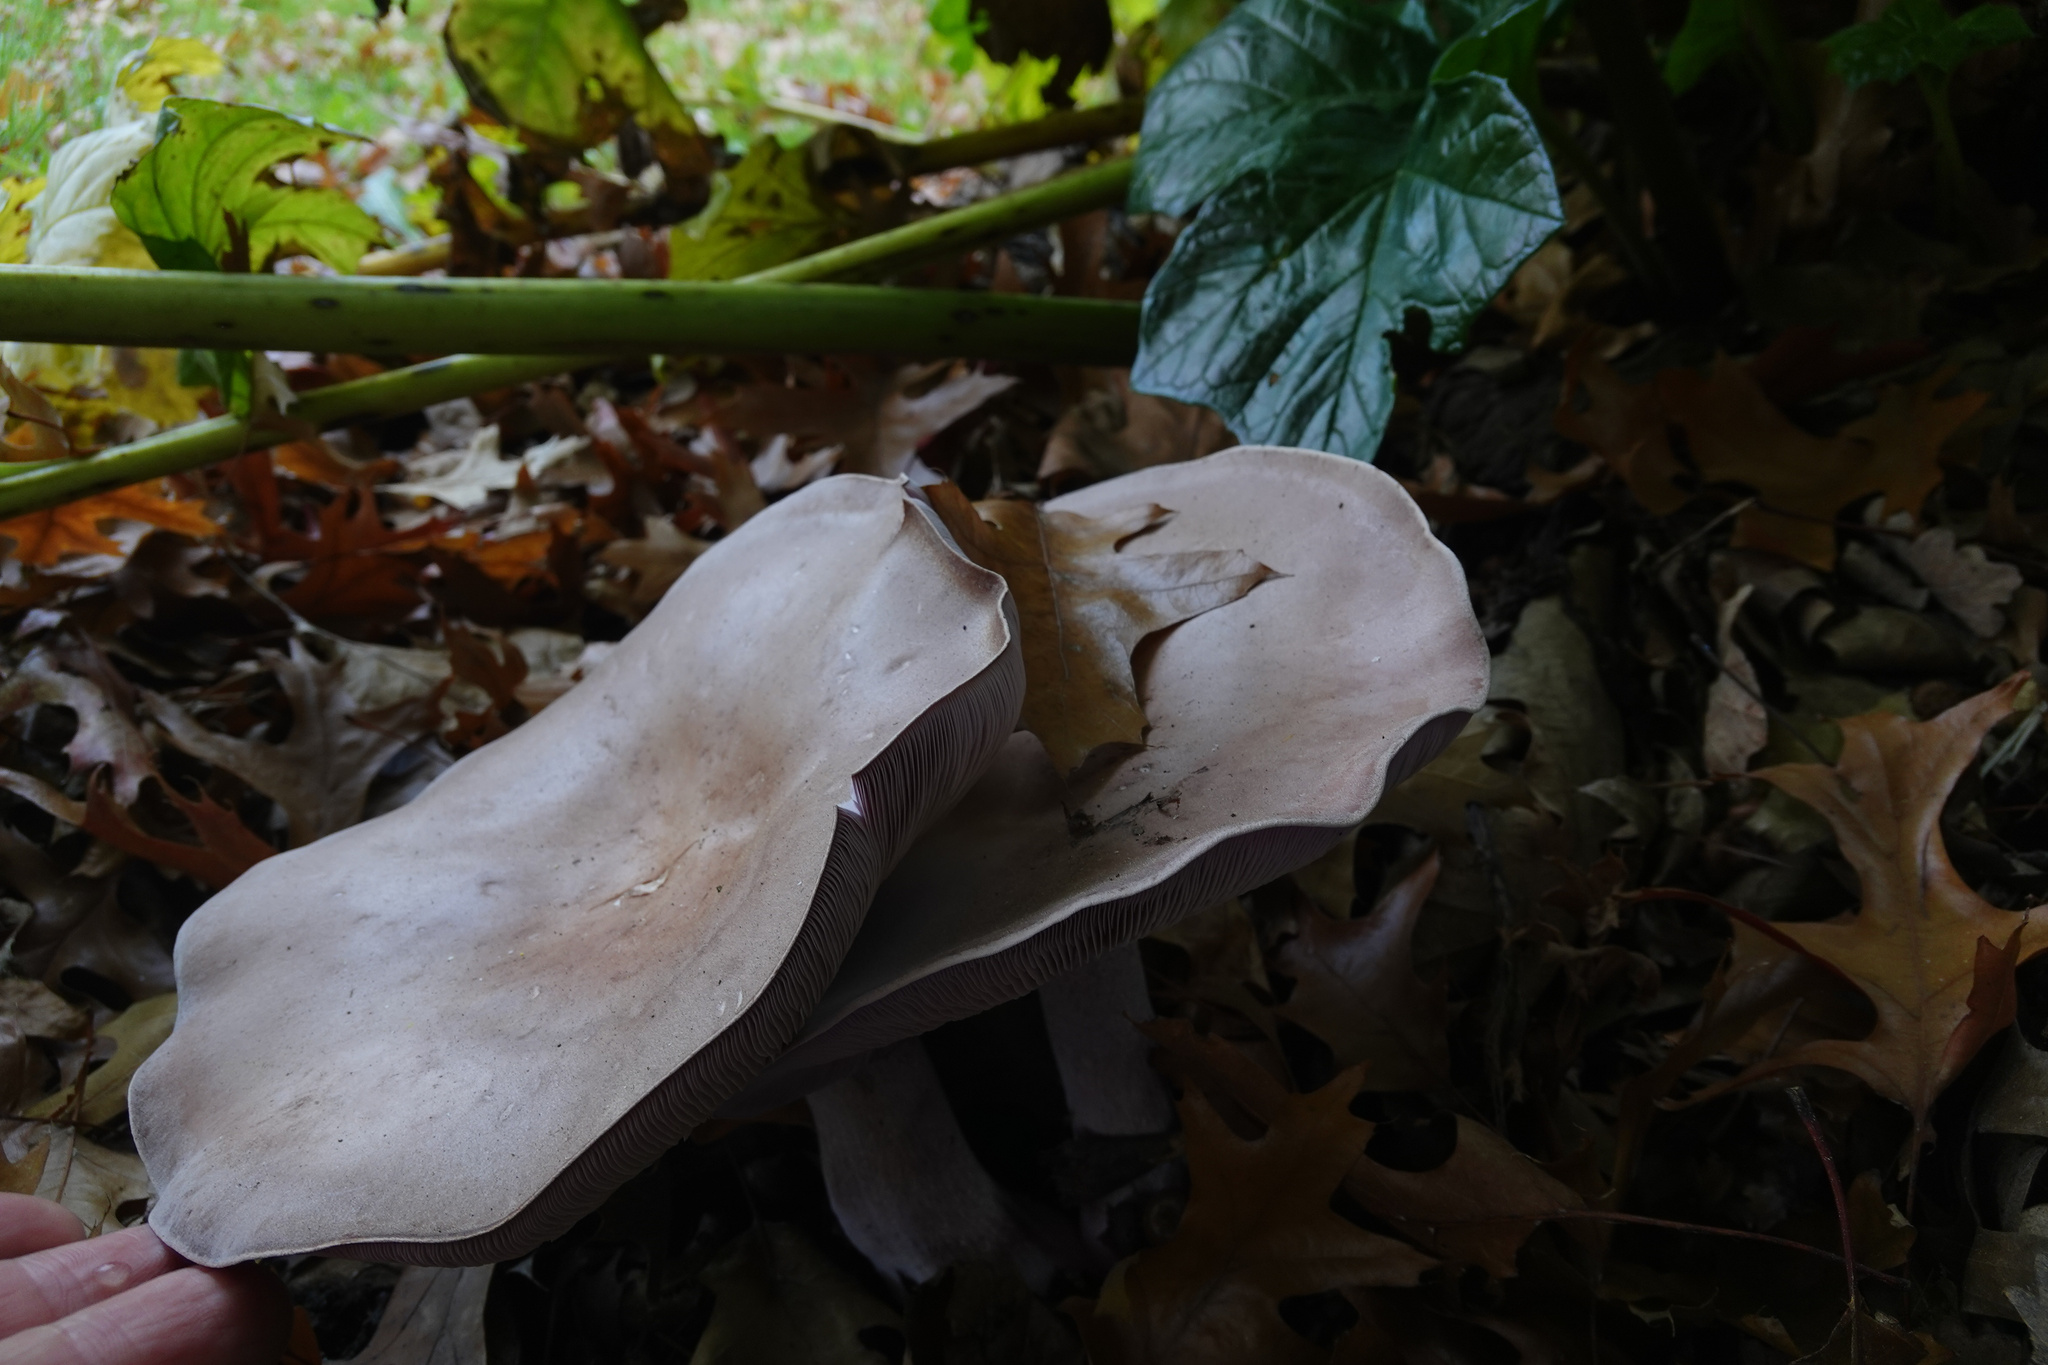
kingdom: Fungi
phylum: Basidiomycota
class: Agaricomycetes
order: Agaricales
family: Tricholomataceae
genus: Collybia
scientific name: Collybia
